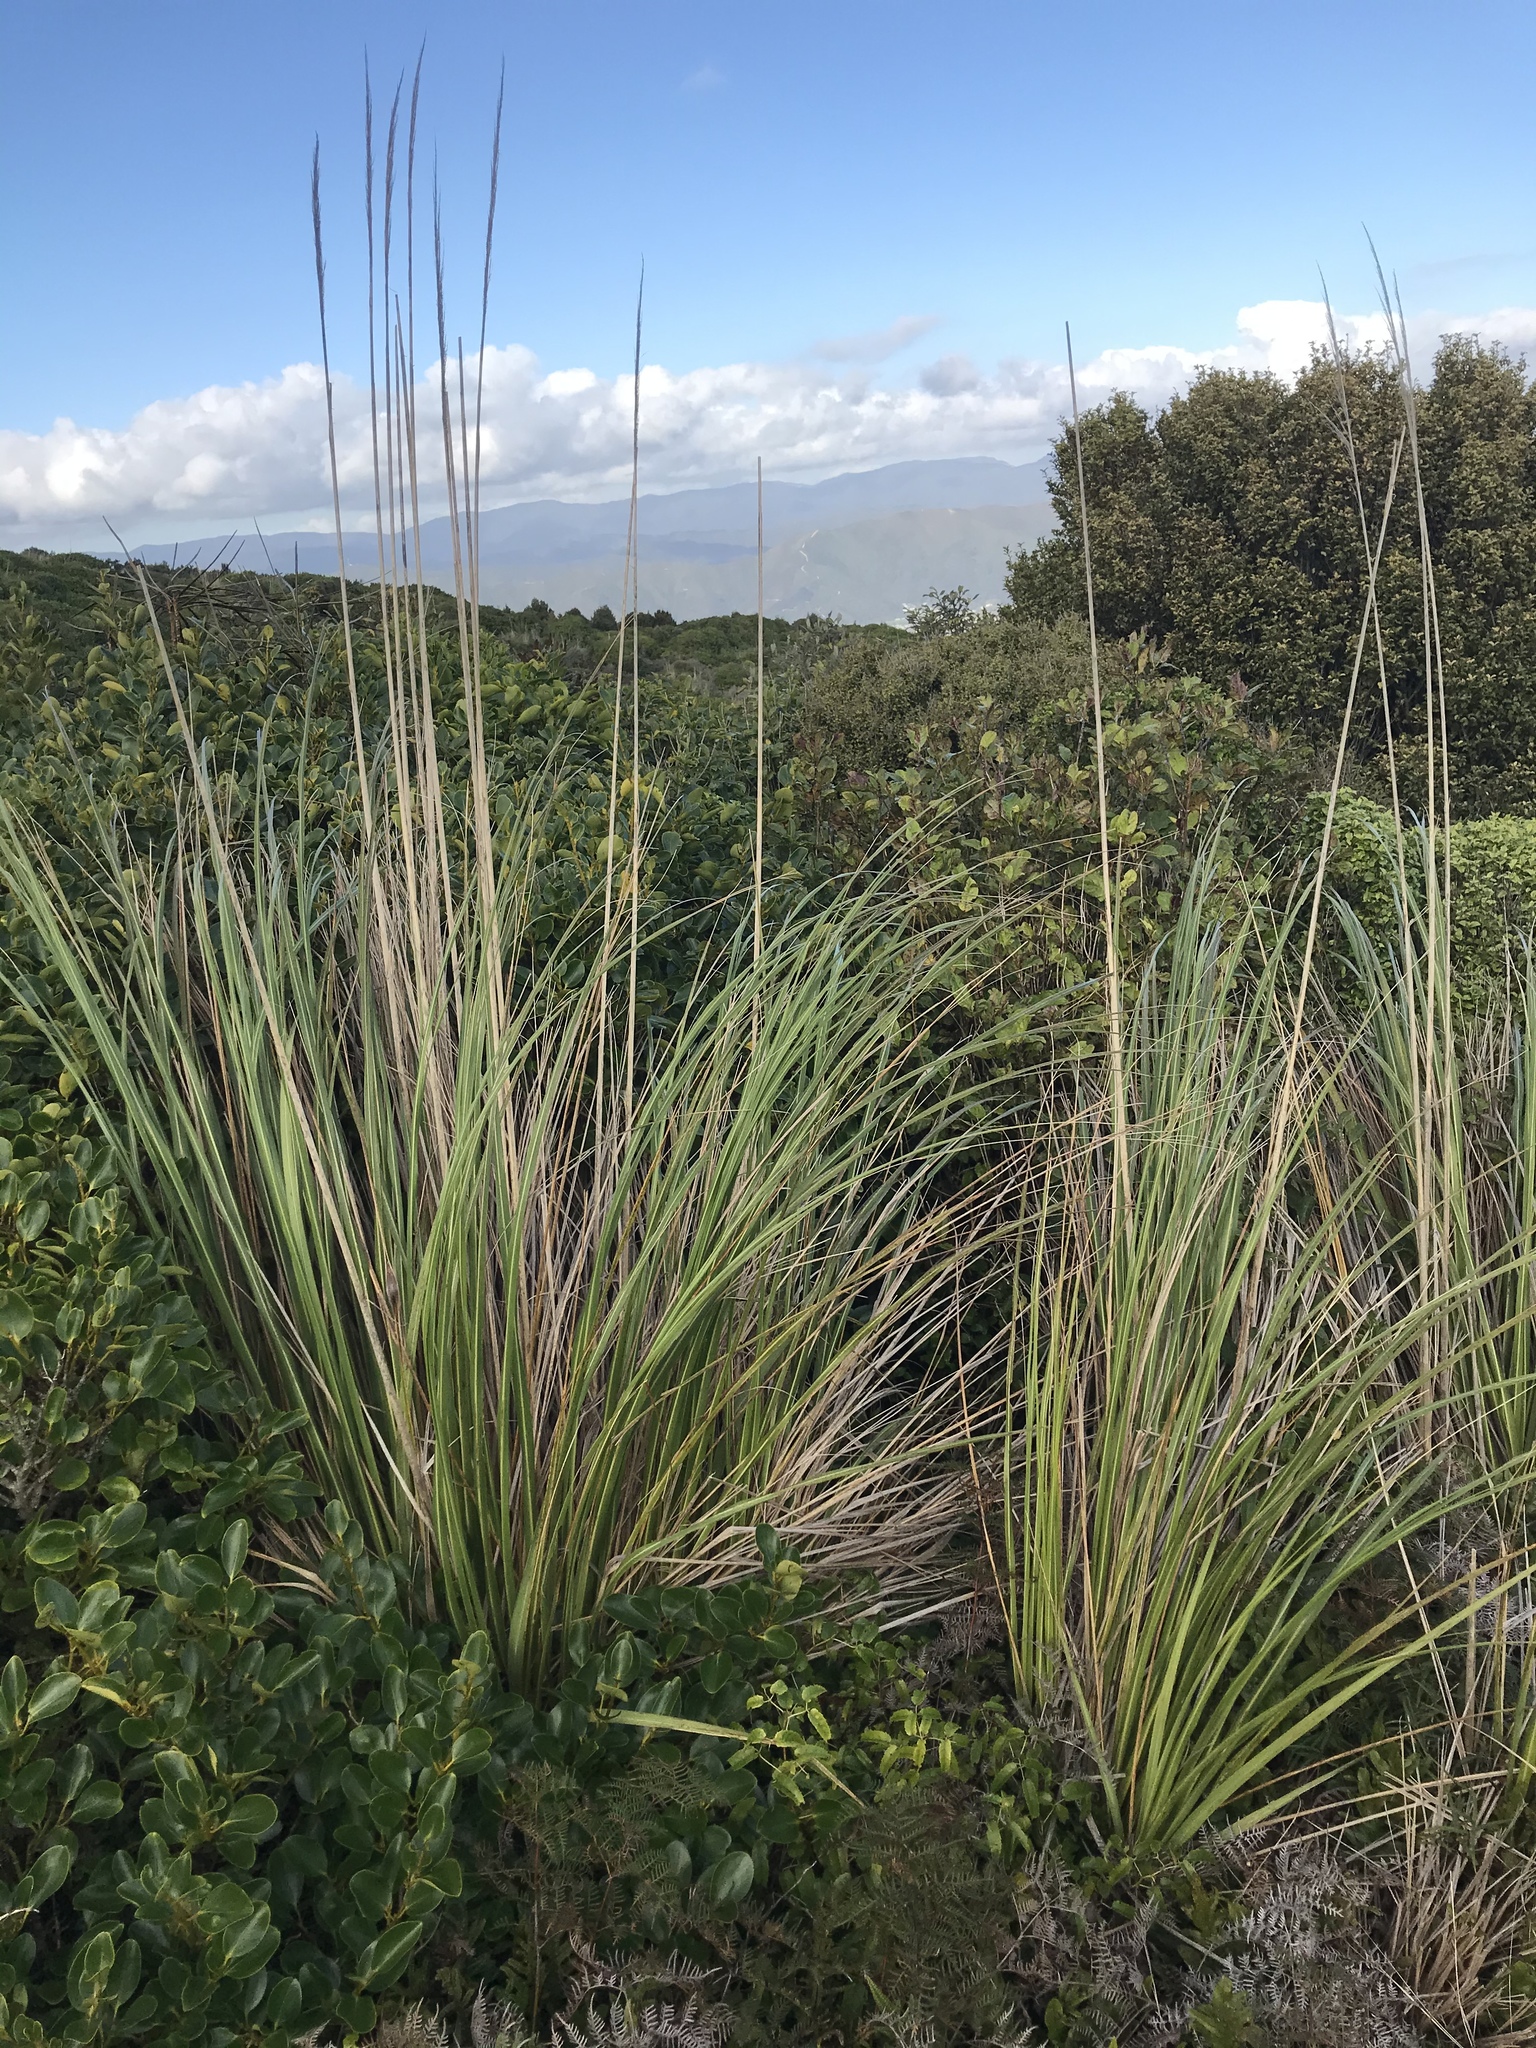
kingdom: Plantae
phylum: Tracheophyta
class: Liliopsida
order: Poales
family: Poaceae
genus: Austroderia
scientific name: Austroderia fulvida
